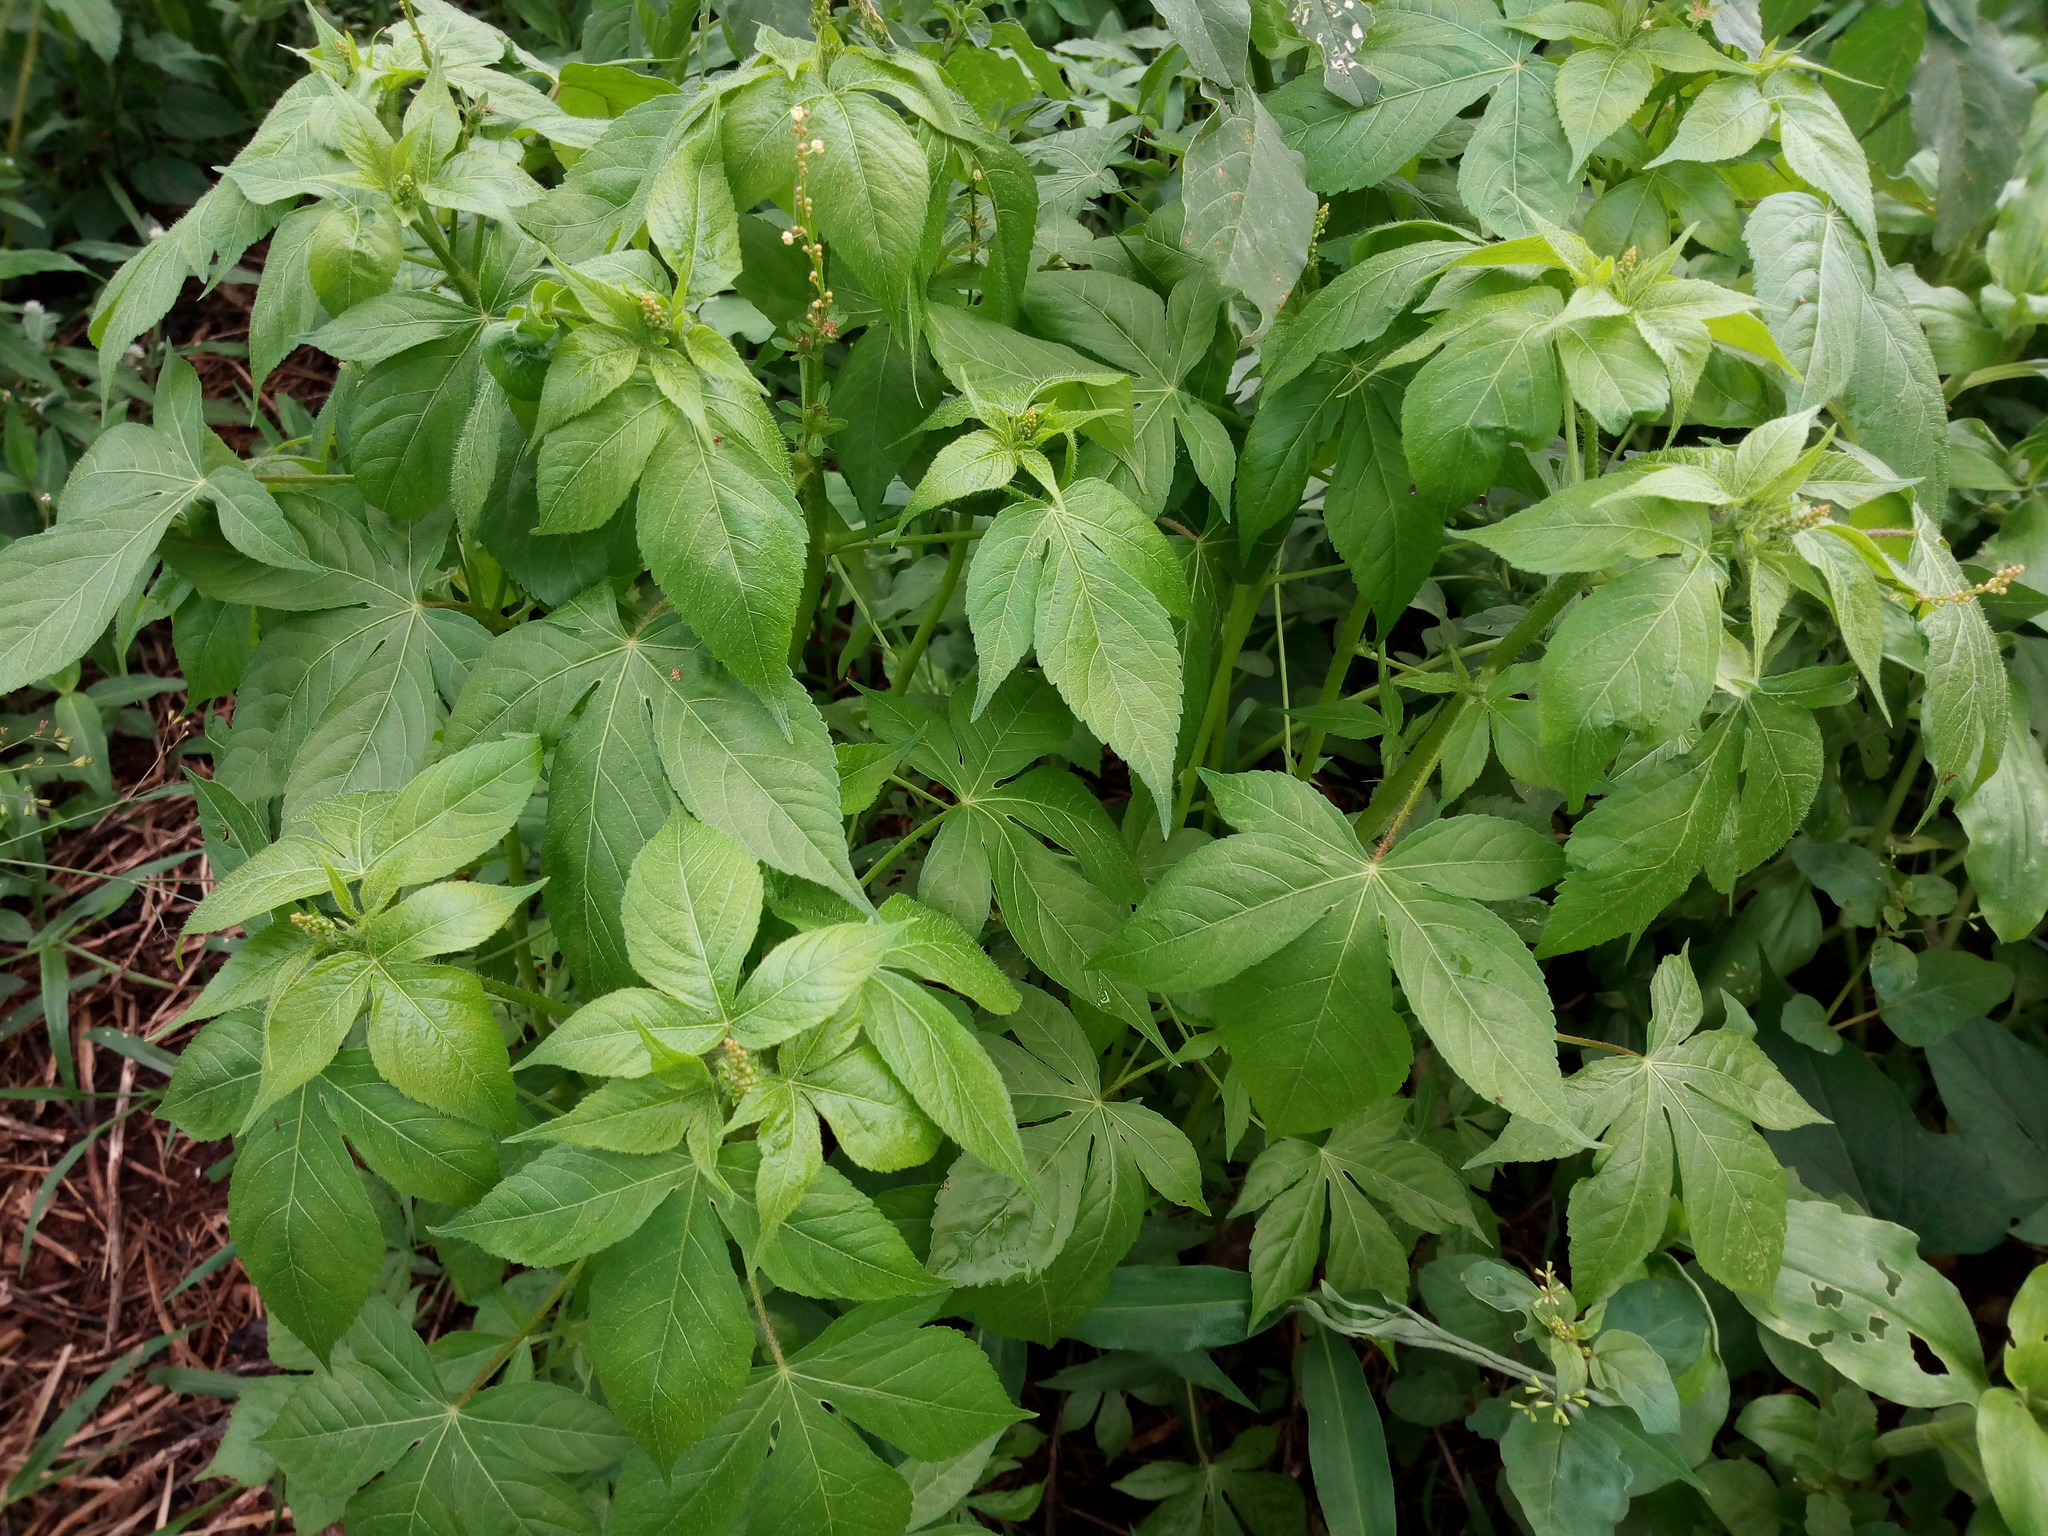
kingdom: Plantae
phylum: Tracheophyta
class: Magnoliopsida
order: Malpighiales
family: Euphorbiaceae
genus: Astraea
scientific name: Astraea lobata
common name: Lobed croton
